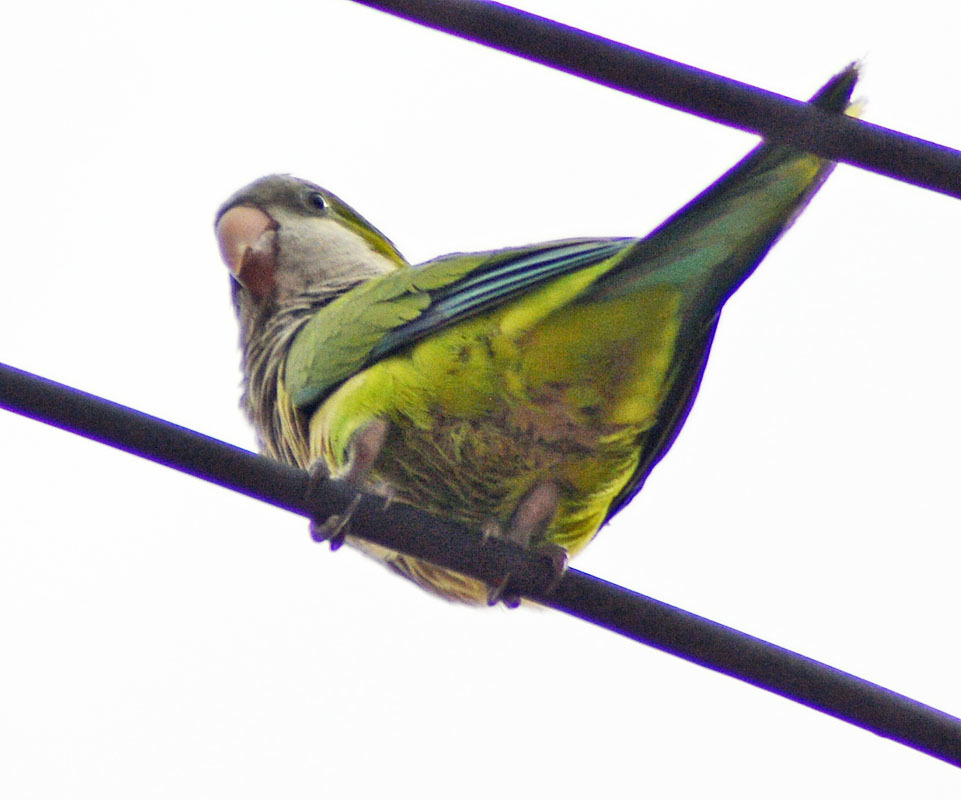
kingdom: Animalia
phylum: Chordata
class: Aves
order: Psittaciformes
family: Psittacidae
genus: Myiopsitta
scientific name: Myiopsitta monachus
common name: Monk parakeet
